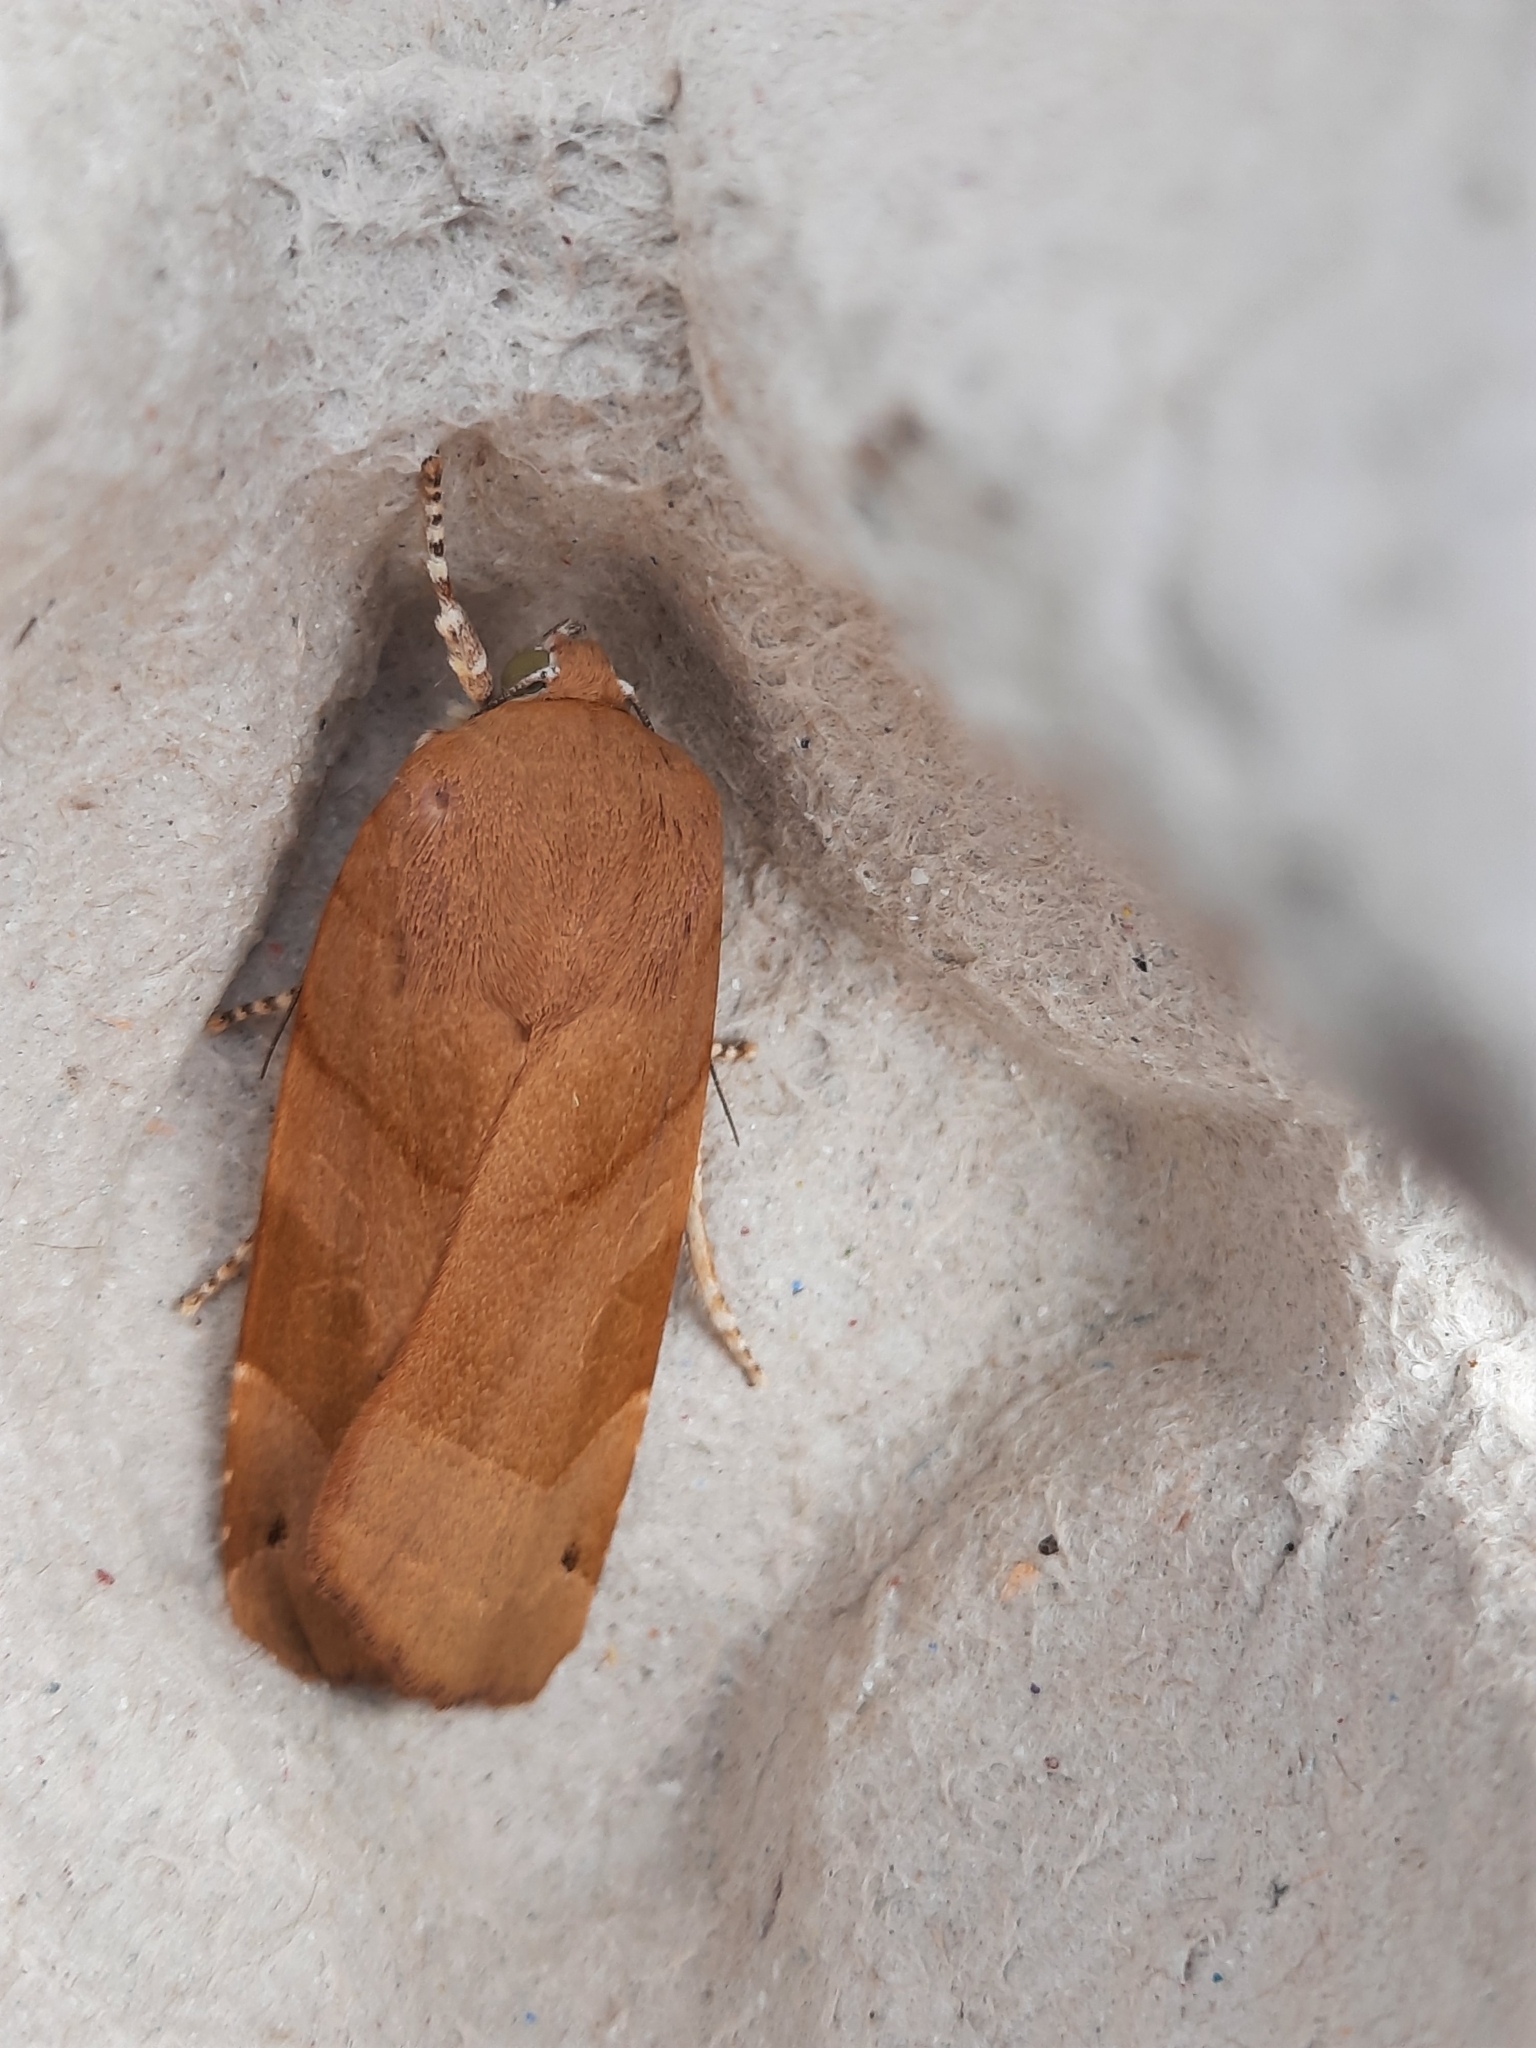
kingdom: Animalia
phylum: Arthropoda
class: Insecta
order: Lepidoptera
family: Noctuidae
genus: Noctua
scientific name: Noctua fimbriata
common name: Broad-bordered yellow underwing
